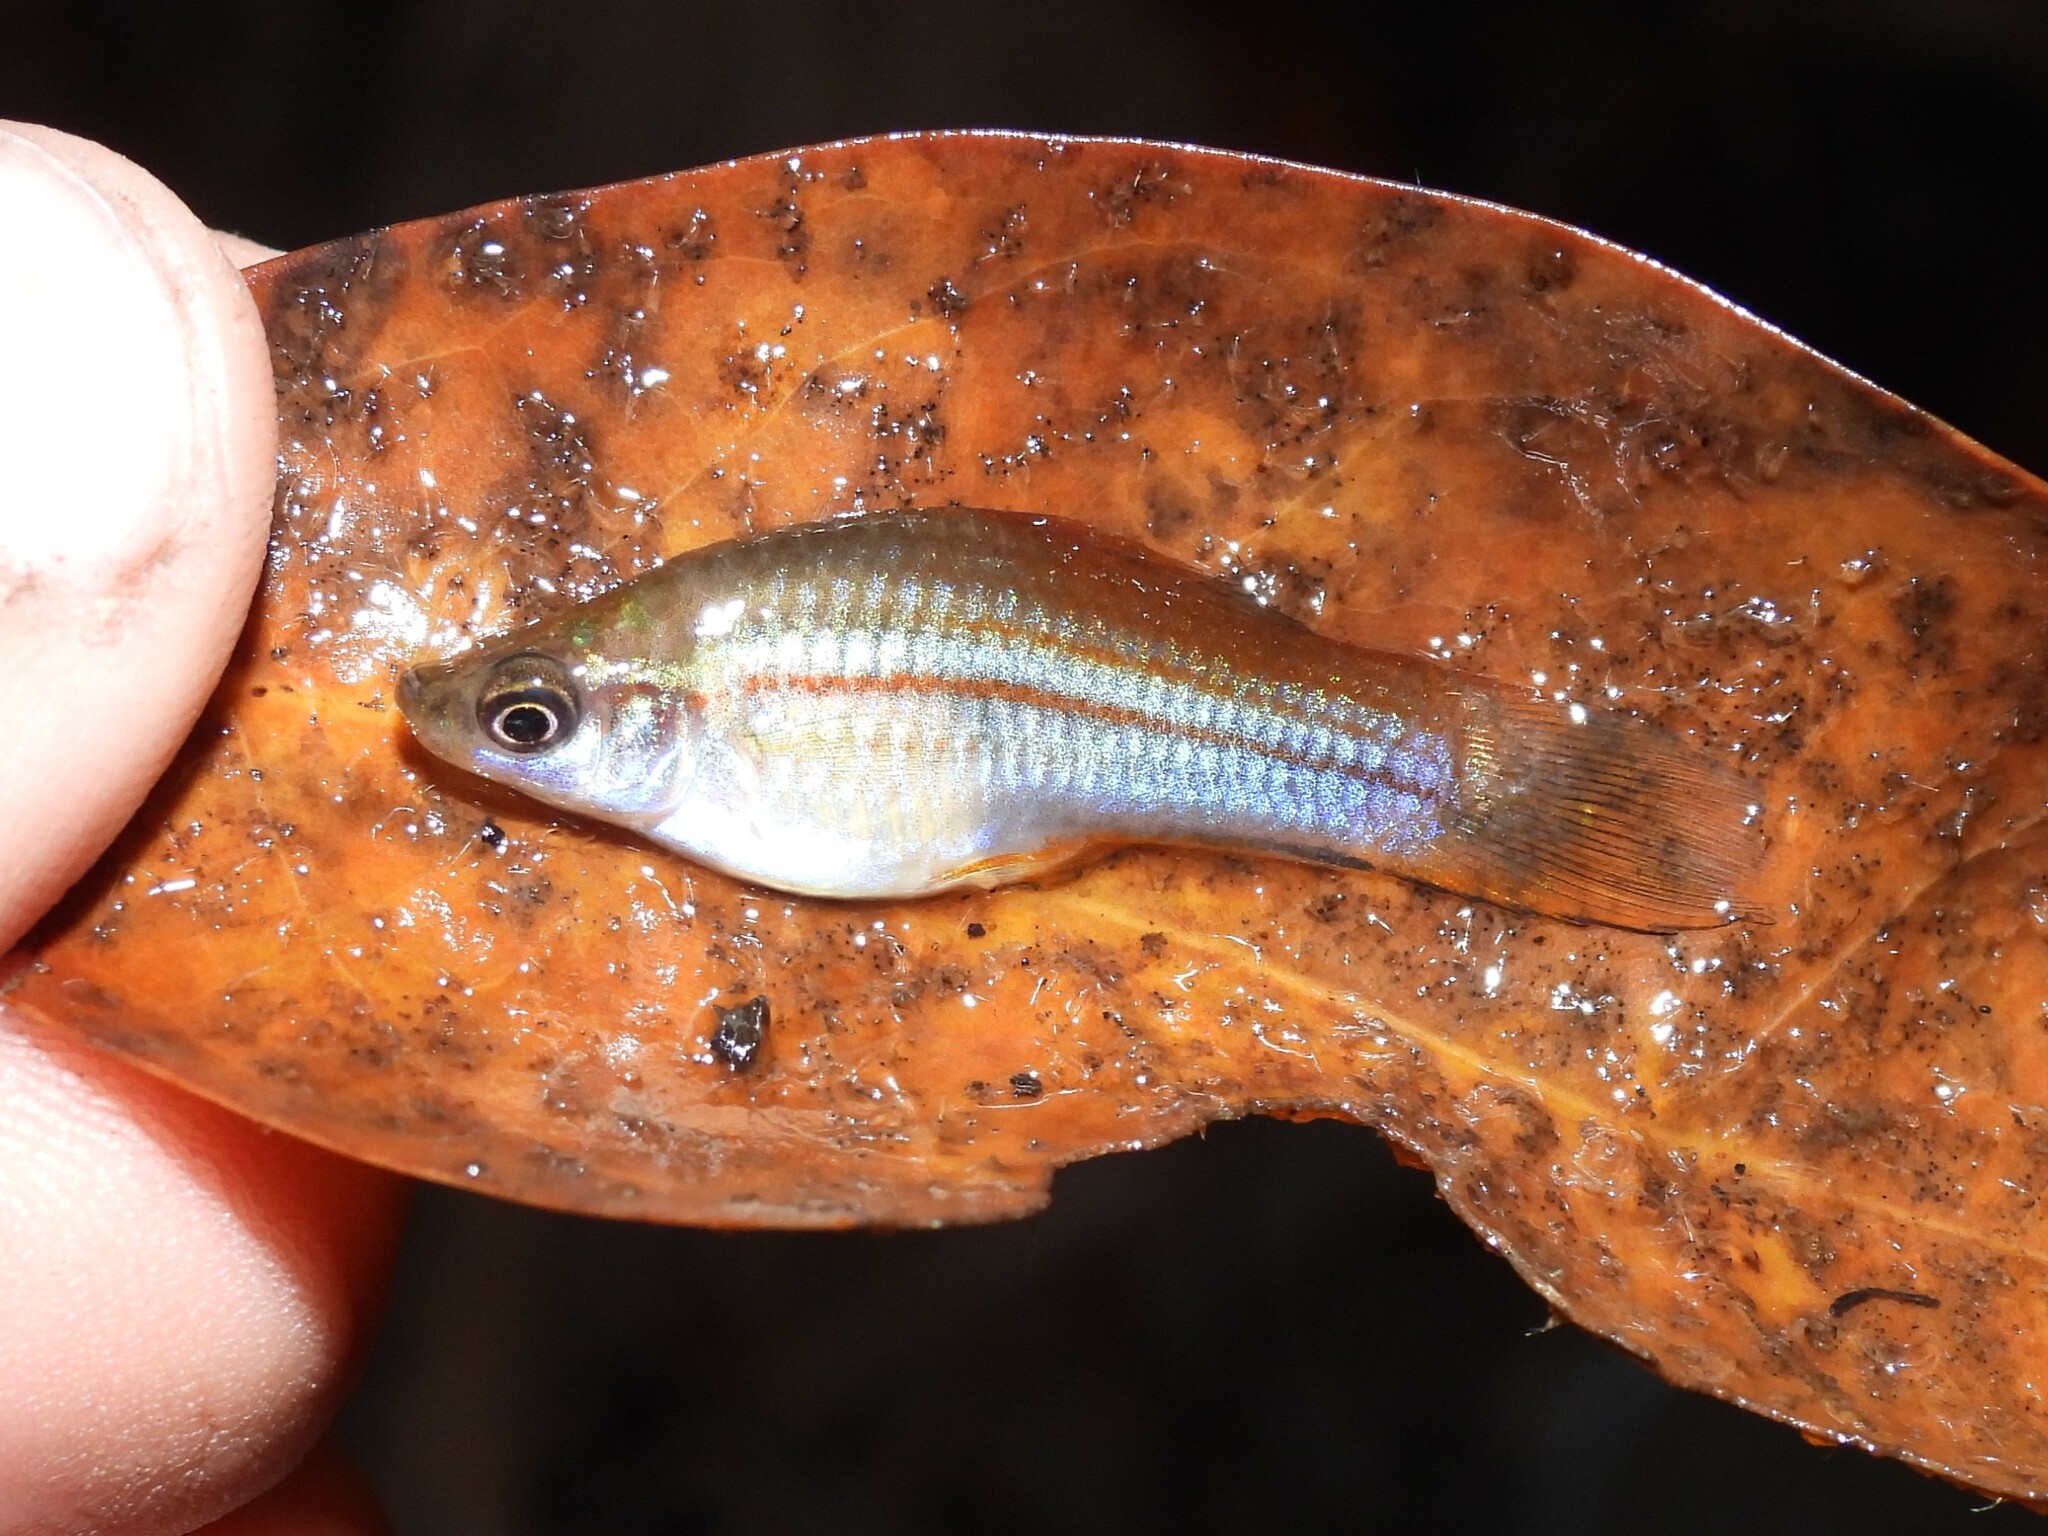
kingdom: Animalia
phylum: Chordata
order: Cyprinodontiformes
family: Poeciliidae
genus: Xiphophorus
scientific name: Xiphophorus hellerii
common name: Green swordtail
